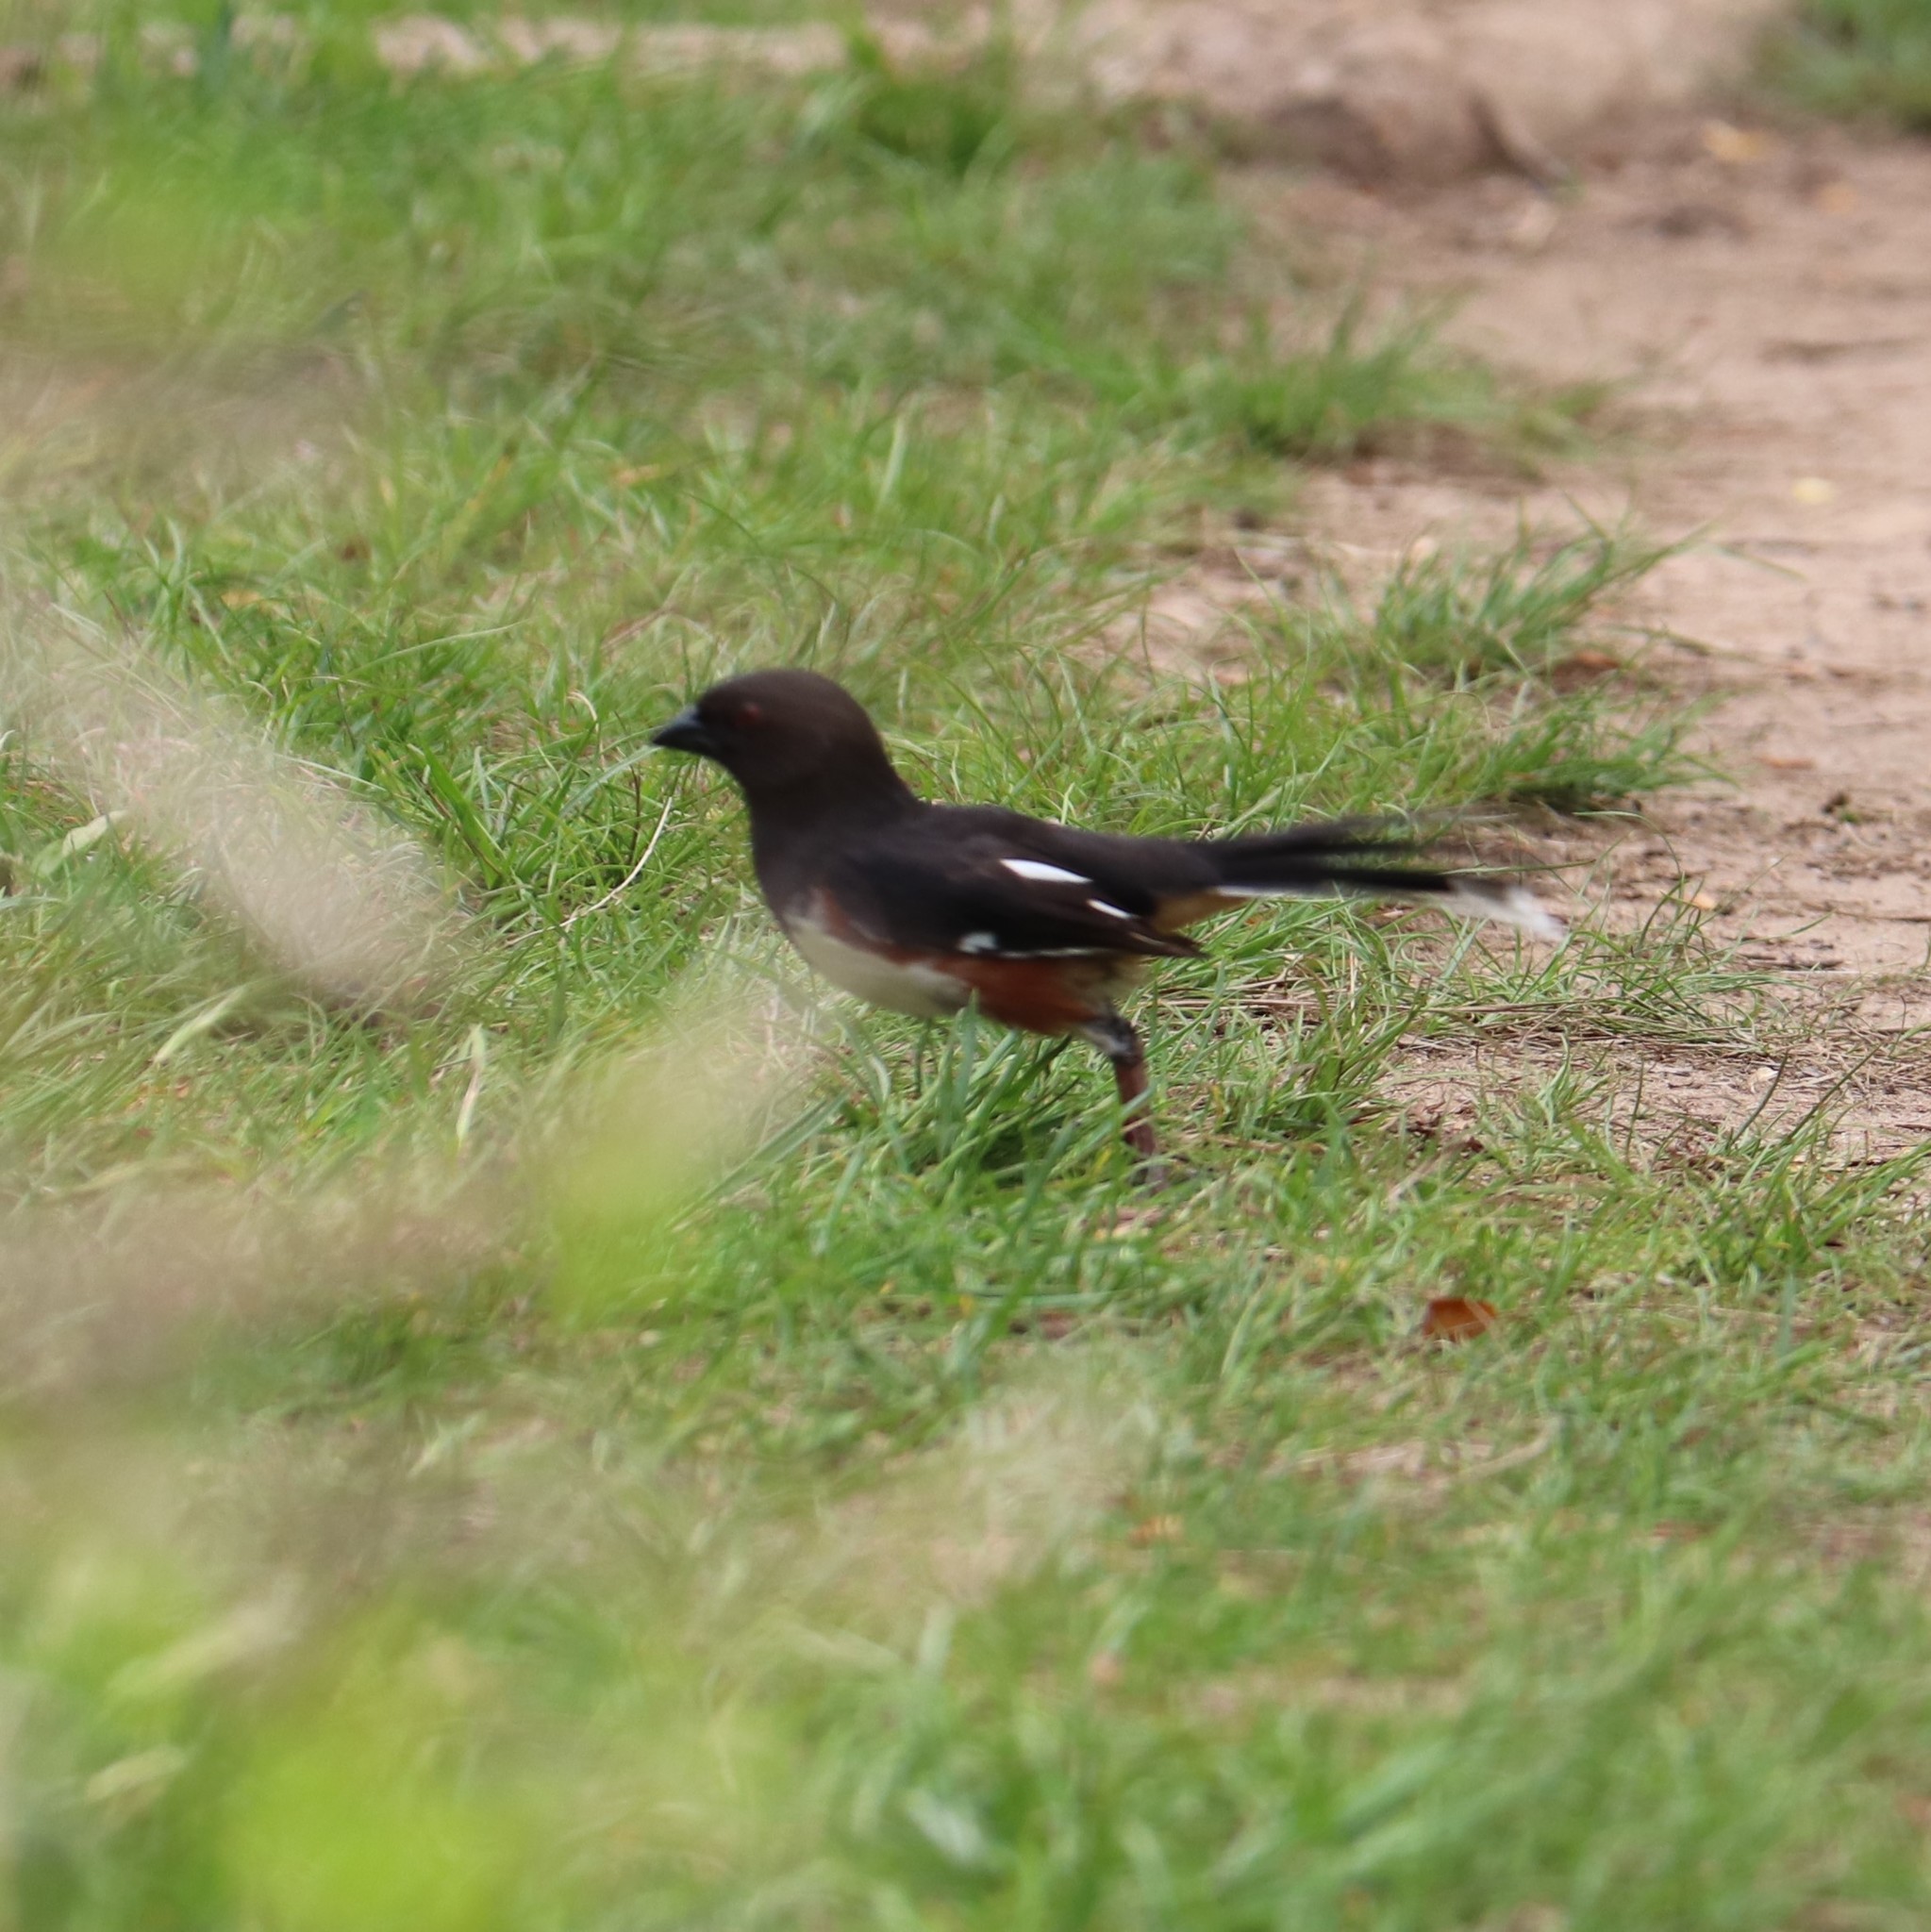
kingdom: Animalia
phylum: Chordata
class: Aves
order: Passeriformes
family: Passerellidae
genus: Pipilo
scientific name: Pipilo erythrophthalmus
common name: Eastern towhee
